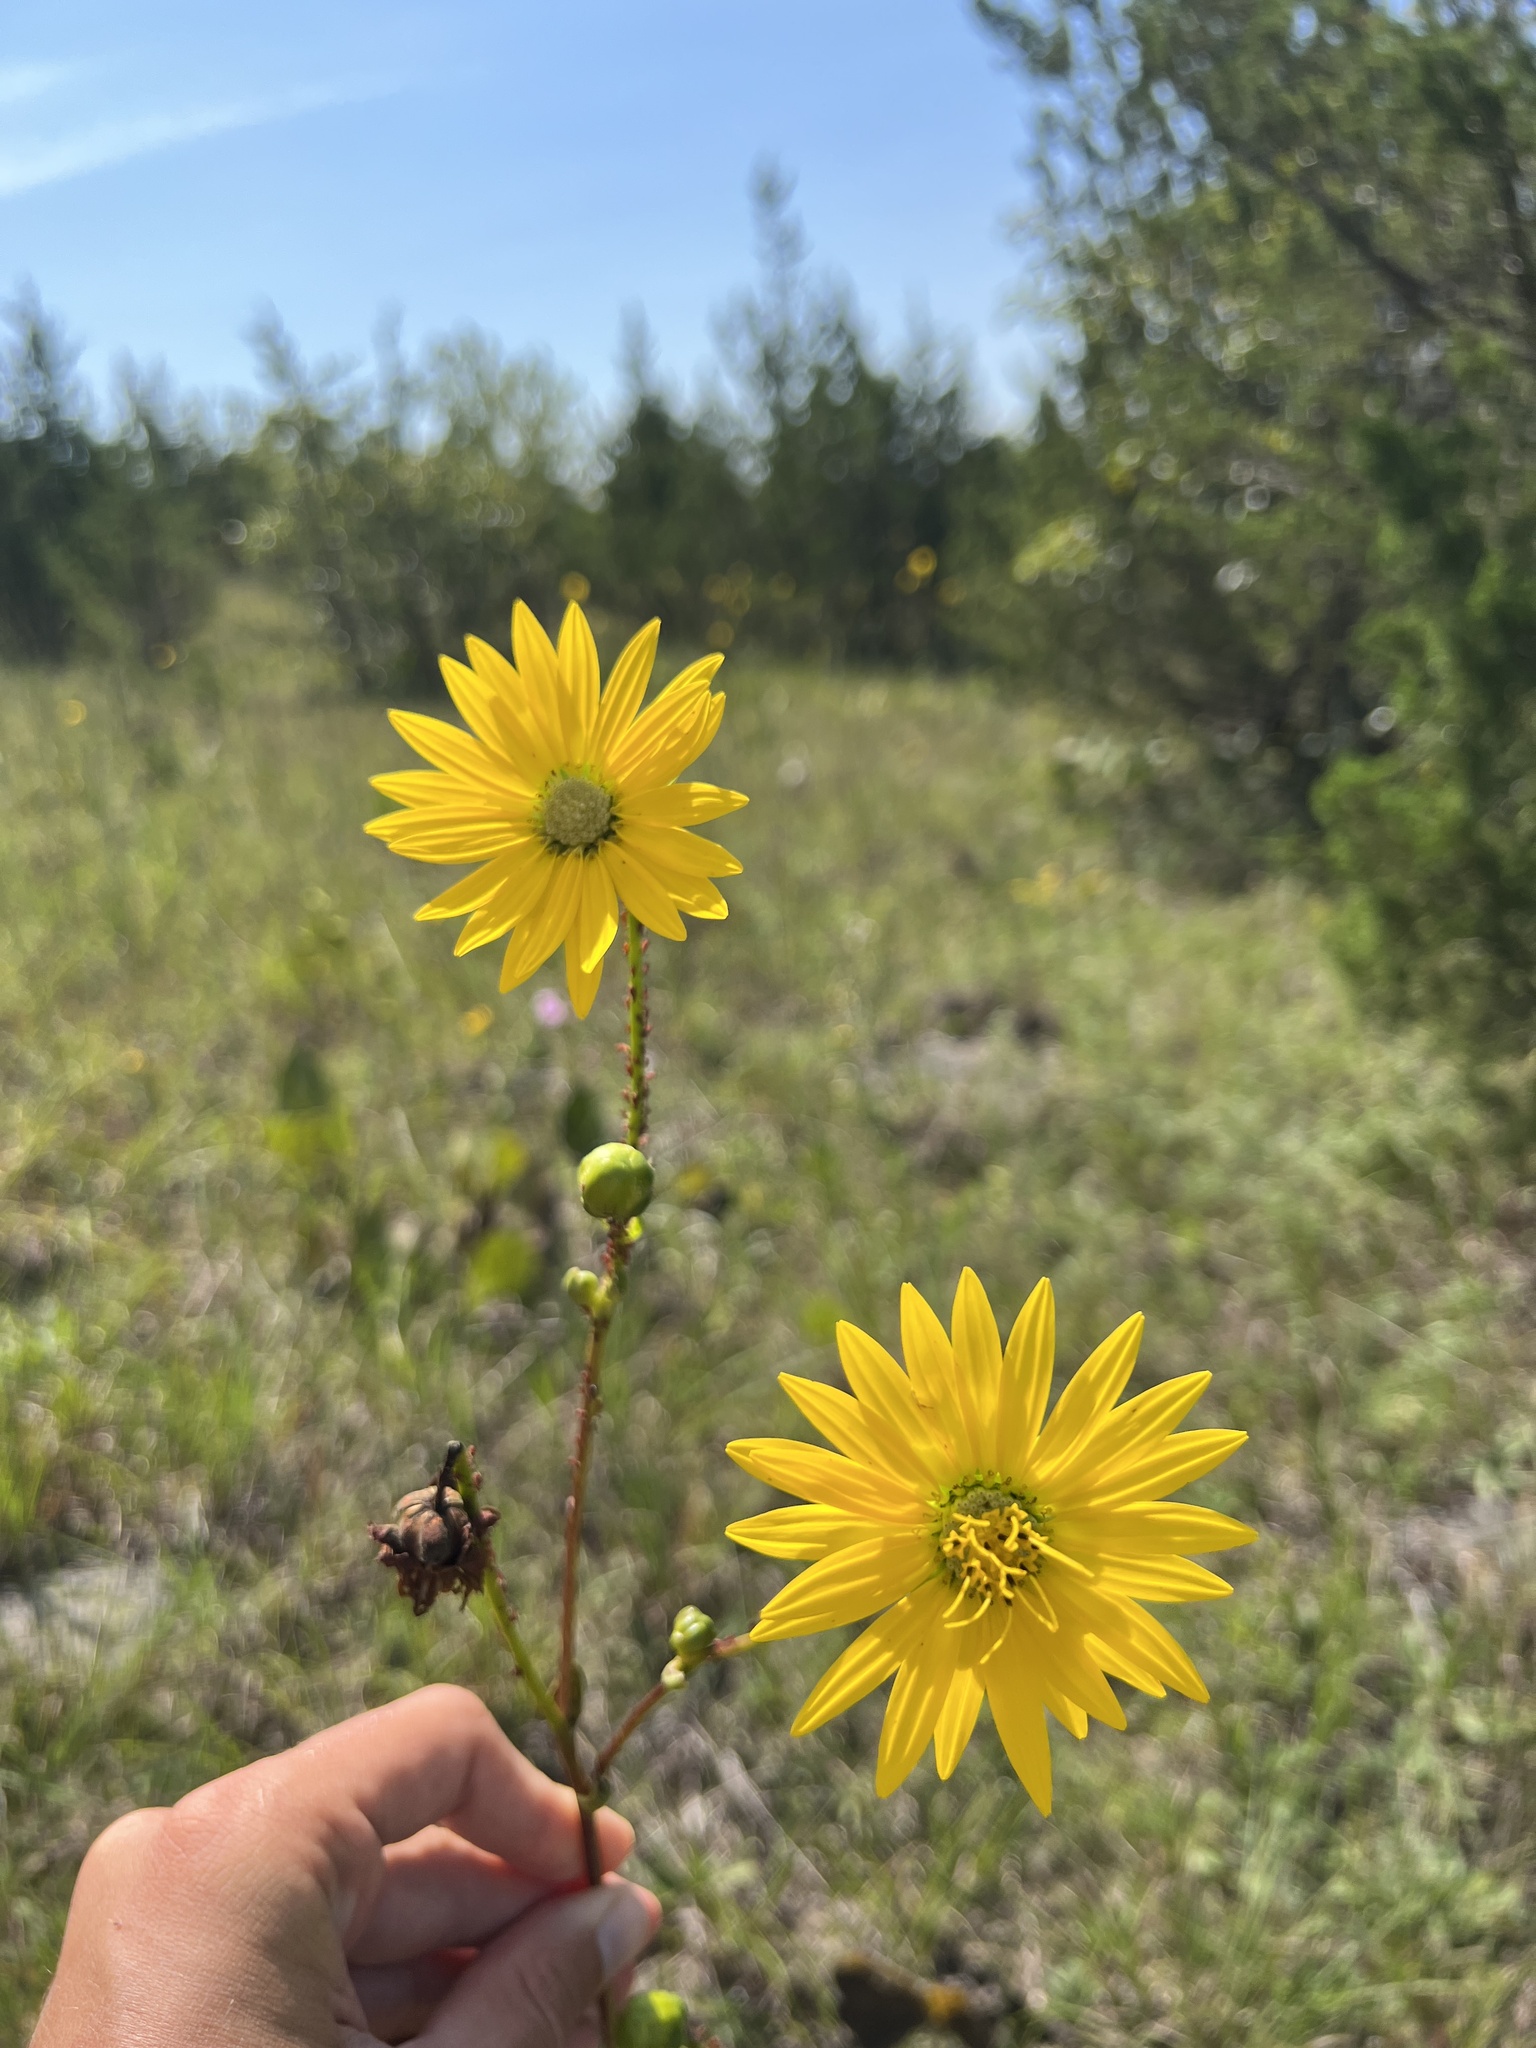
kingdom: Plantae
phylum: Tracheophyta
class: Magnoliopsida
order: Asterales
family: Asteraceae
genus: Silphium
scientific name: Silphium terebinthinaceum
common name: Basal-leaf rosinweed
